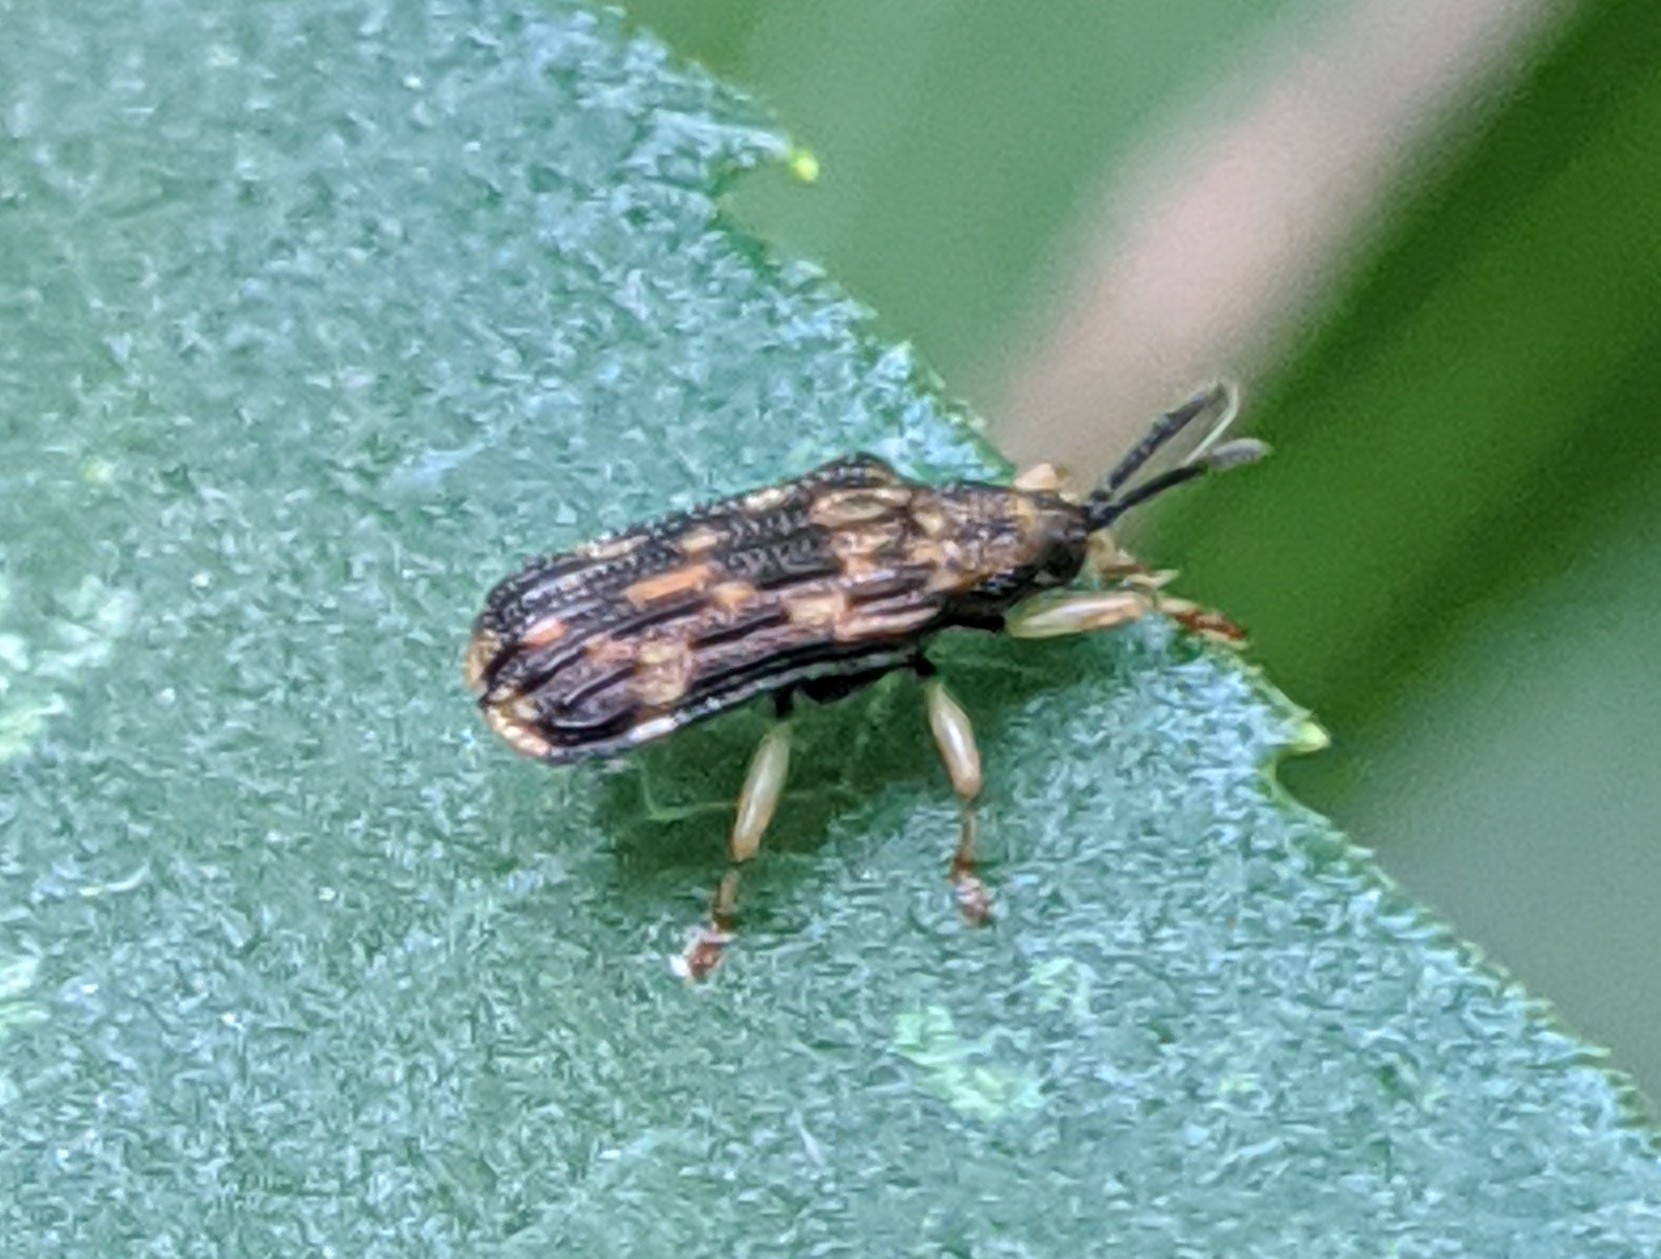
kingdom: Animalia
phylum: Arthropoda
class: Insecta
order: Coleoptera
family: Chrysomelidae
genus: Sumitrosis
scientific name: Sumitrosis inaequalis
